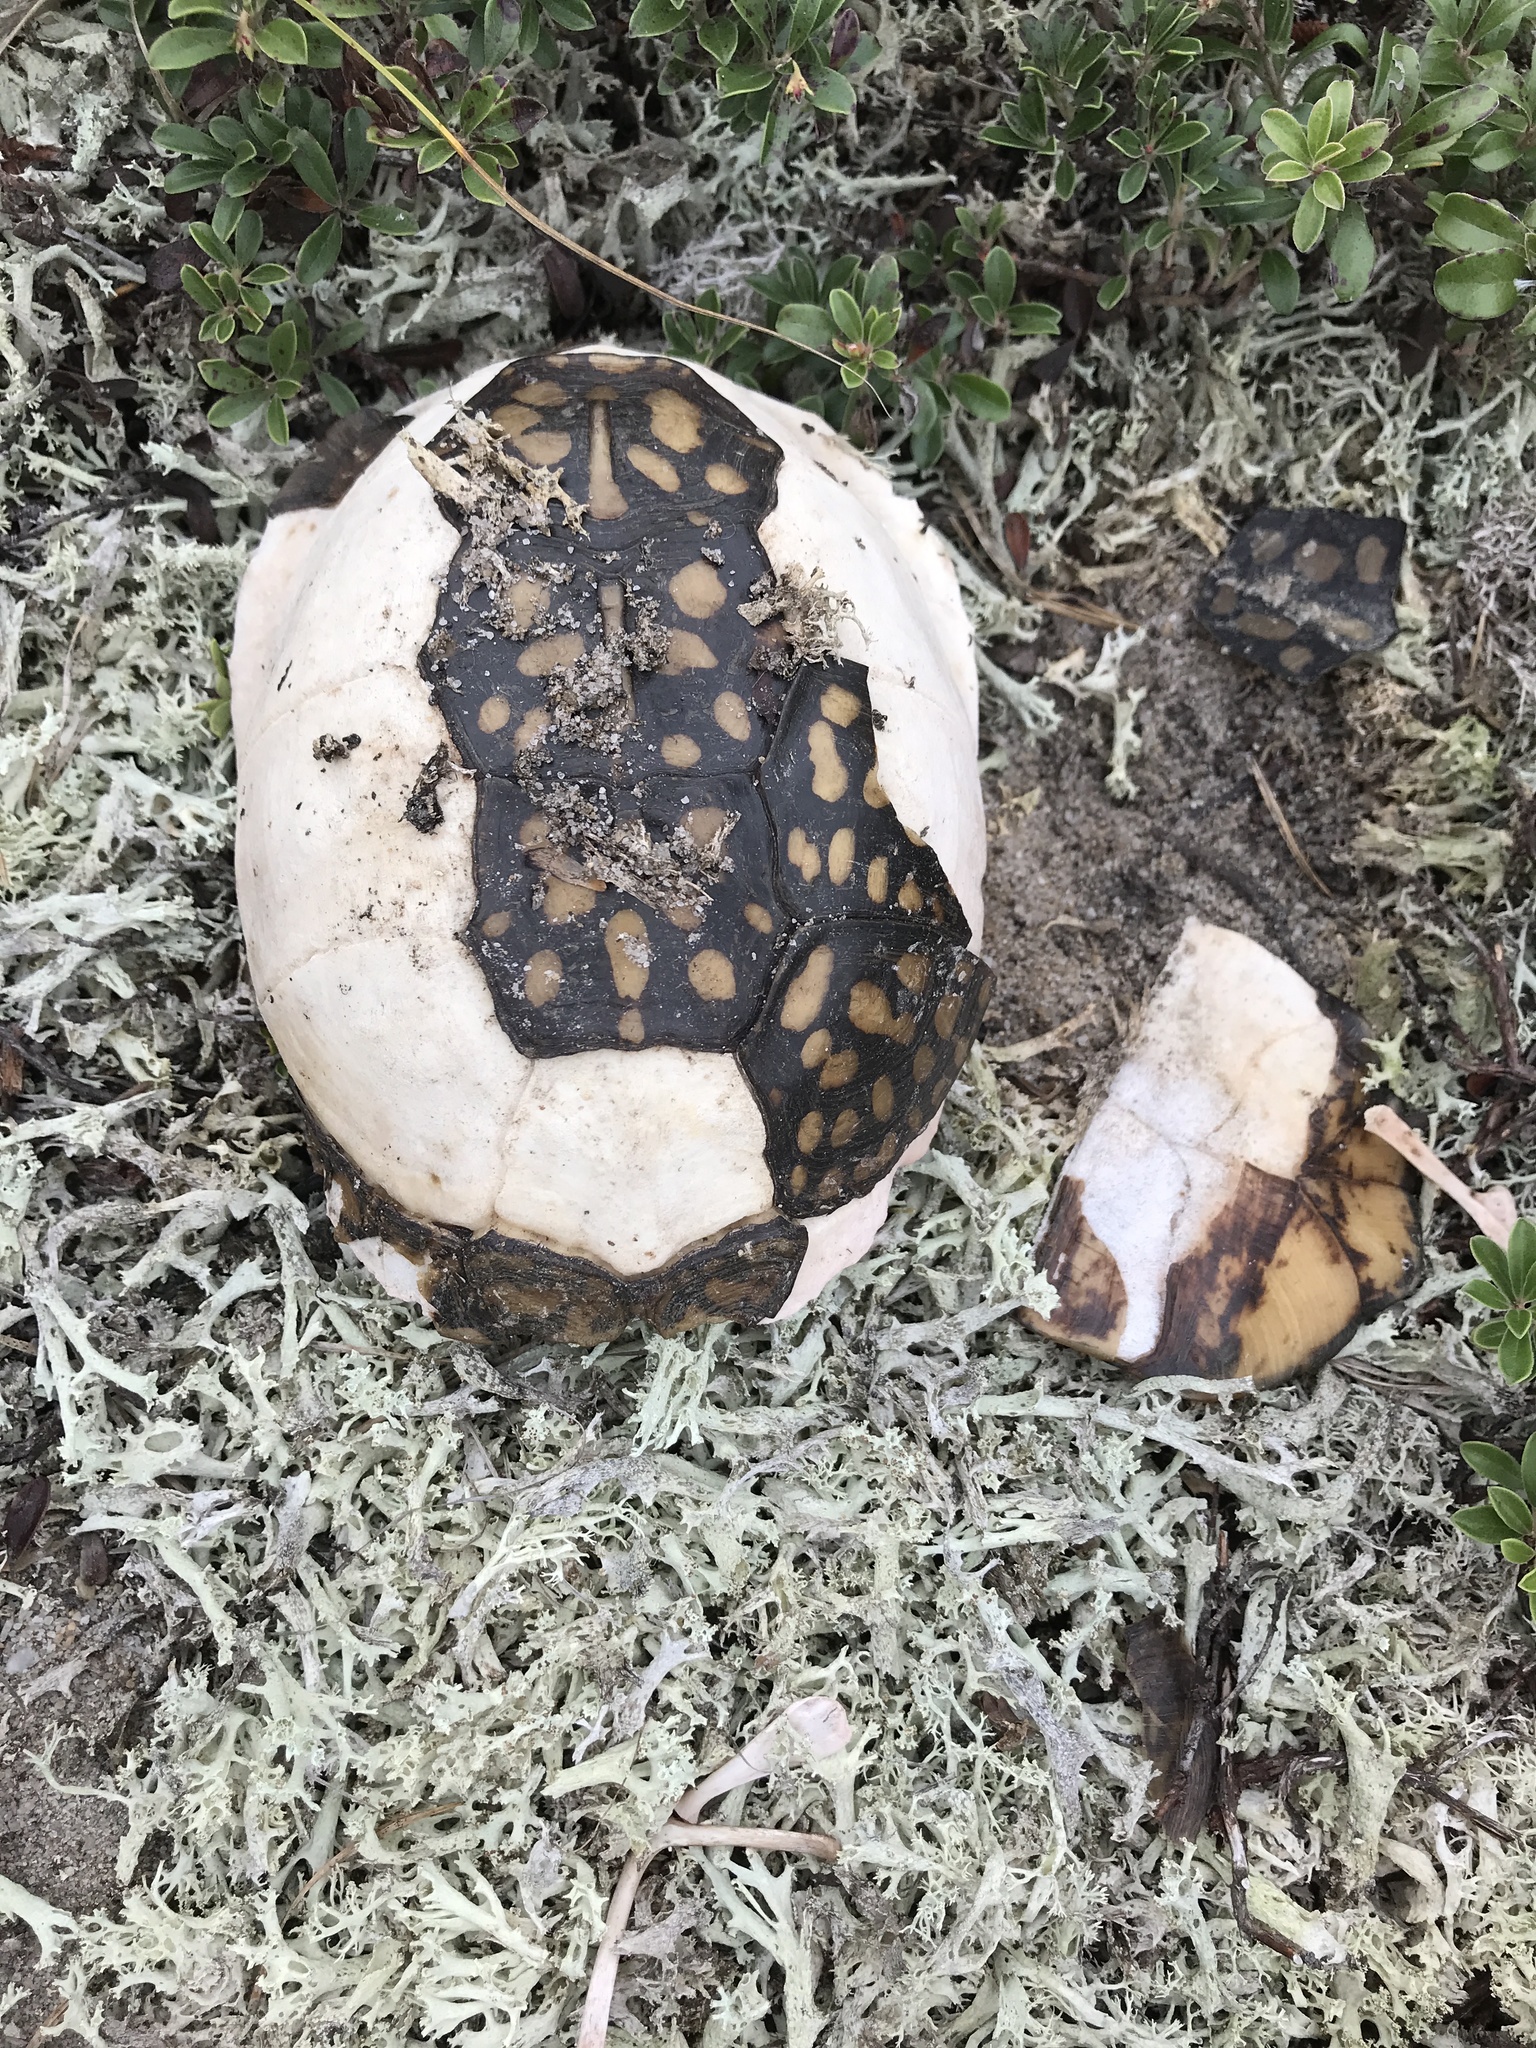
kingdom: Animalia
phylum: Chordata
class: Testudines
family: Emydidae
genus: Terrapene
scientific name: Terrapene carolina
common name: Common box turtle
